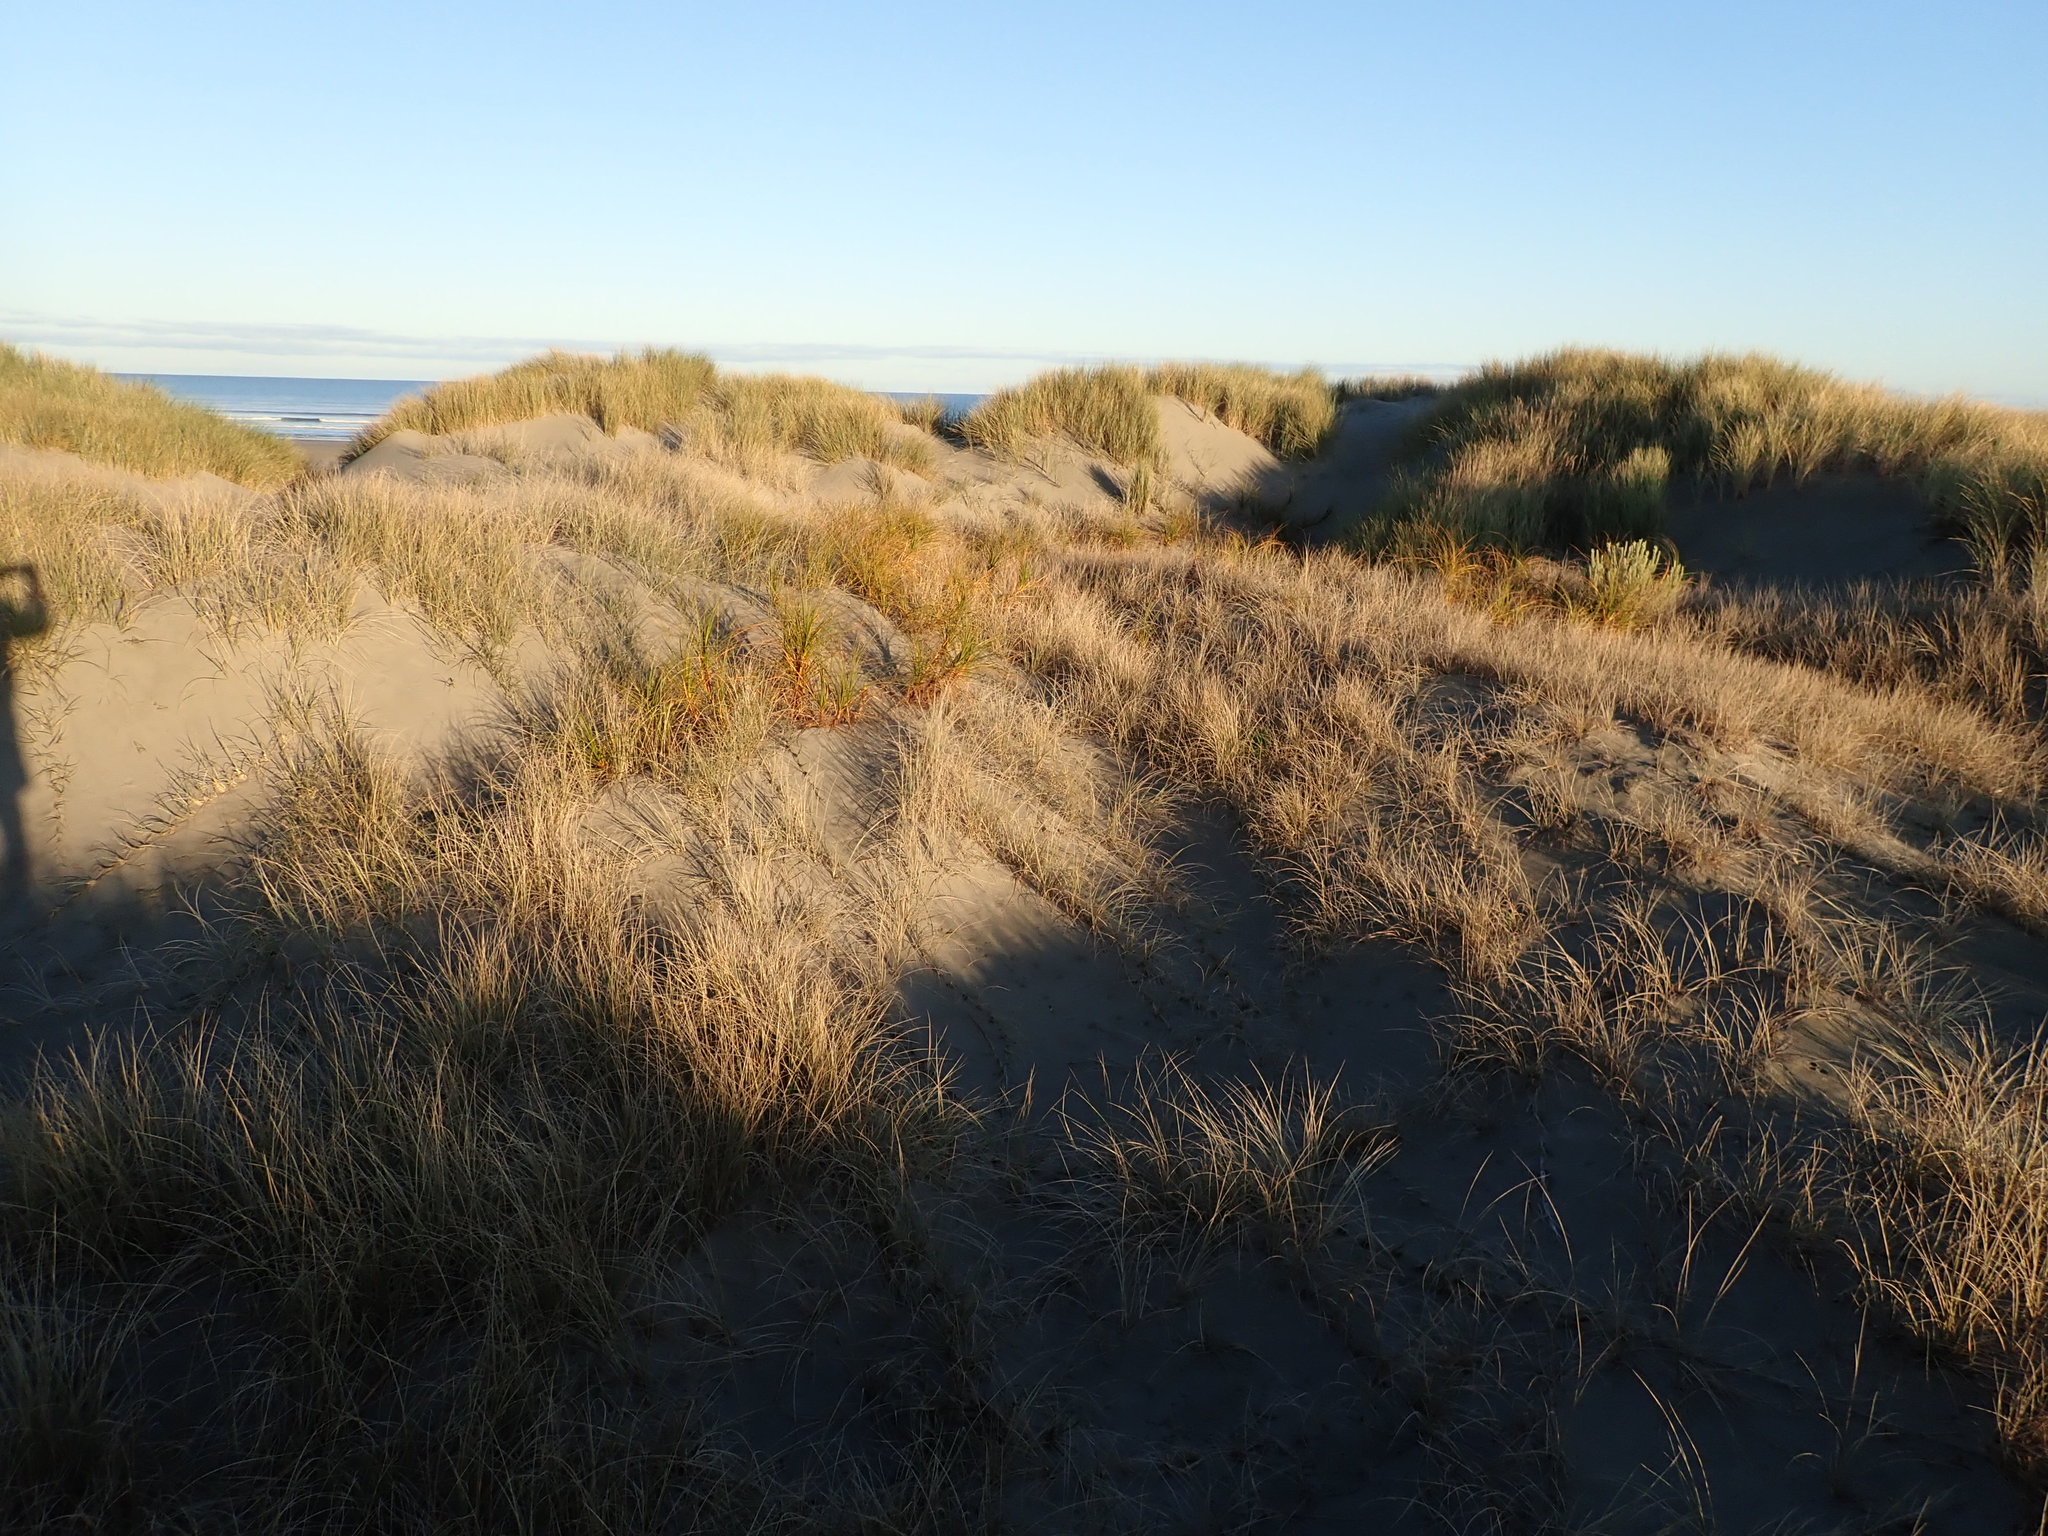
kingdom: Plantae
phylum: Tracheophyta
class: Liliopsida
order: Poales
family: Cyperaceae
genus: Ficinia
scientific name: Ficinia spiralis
